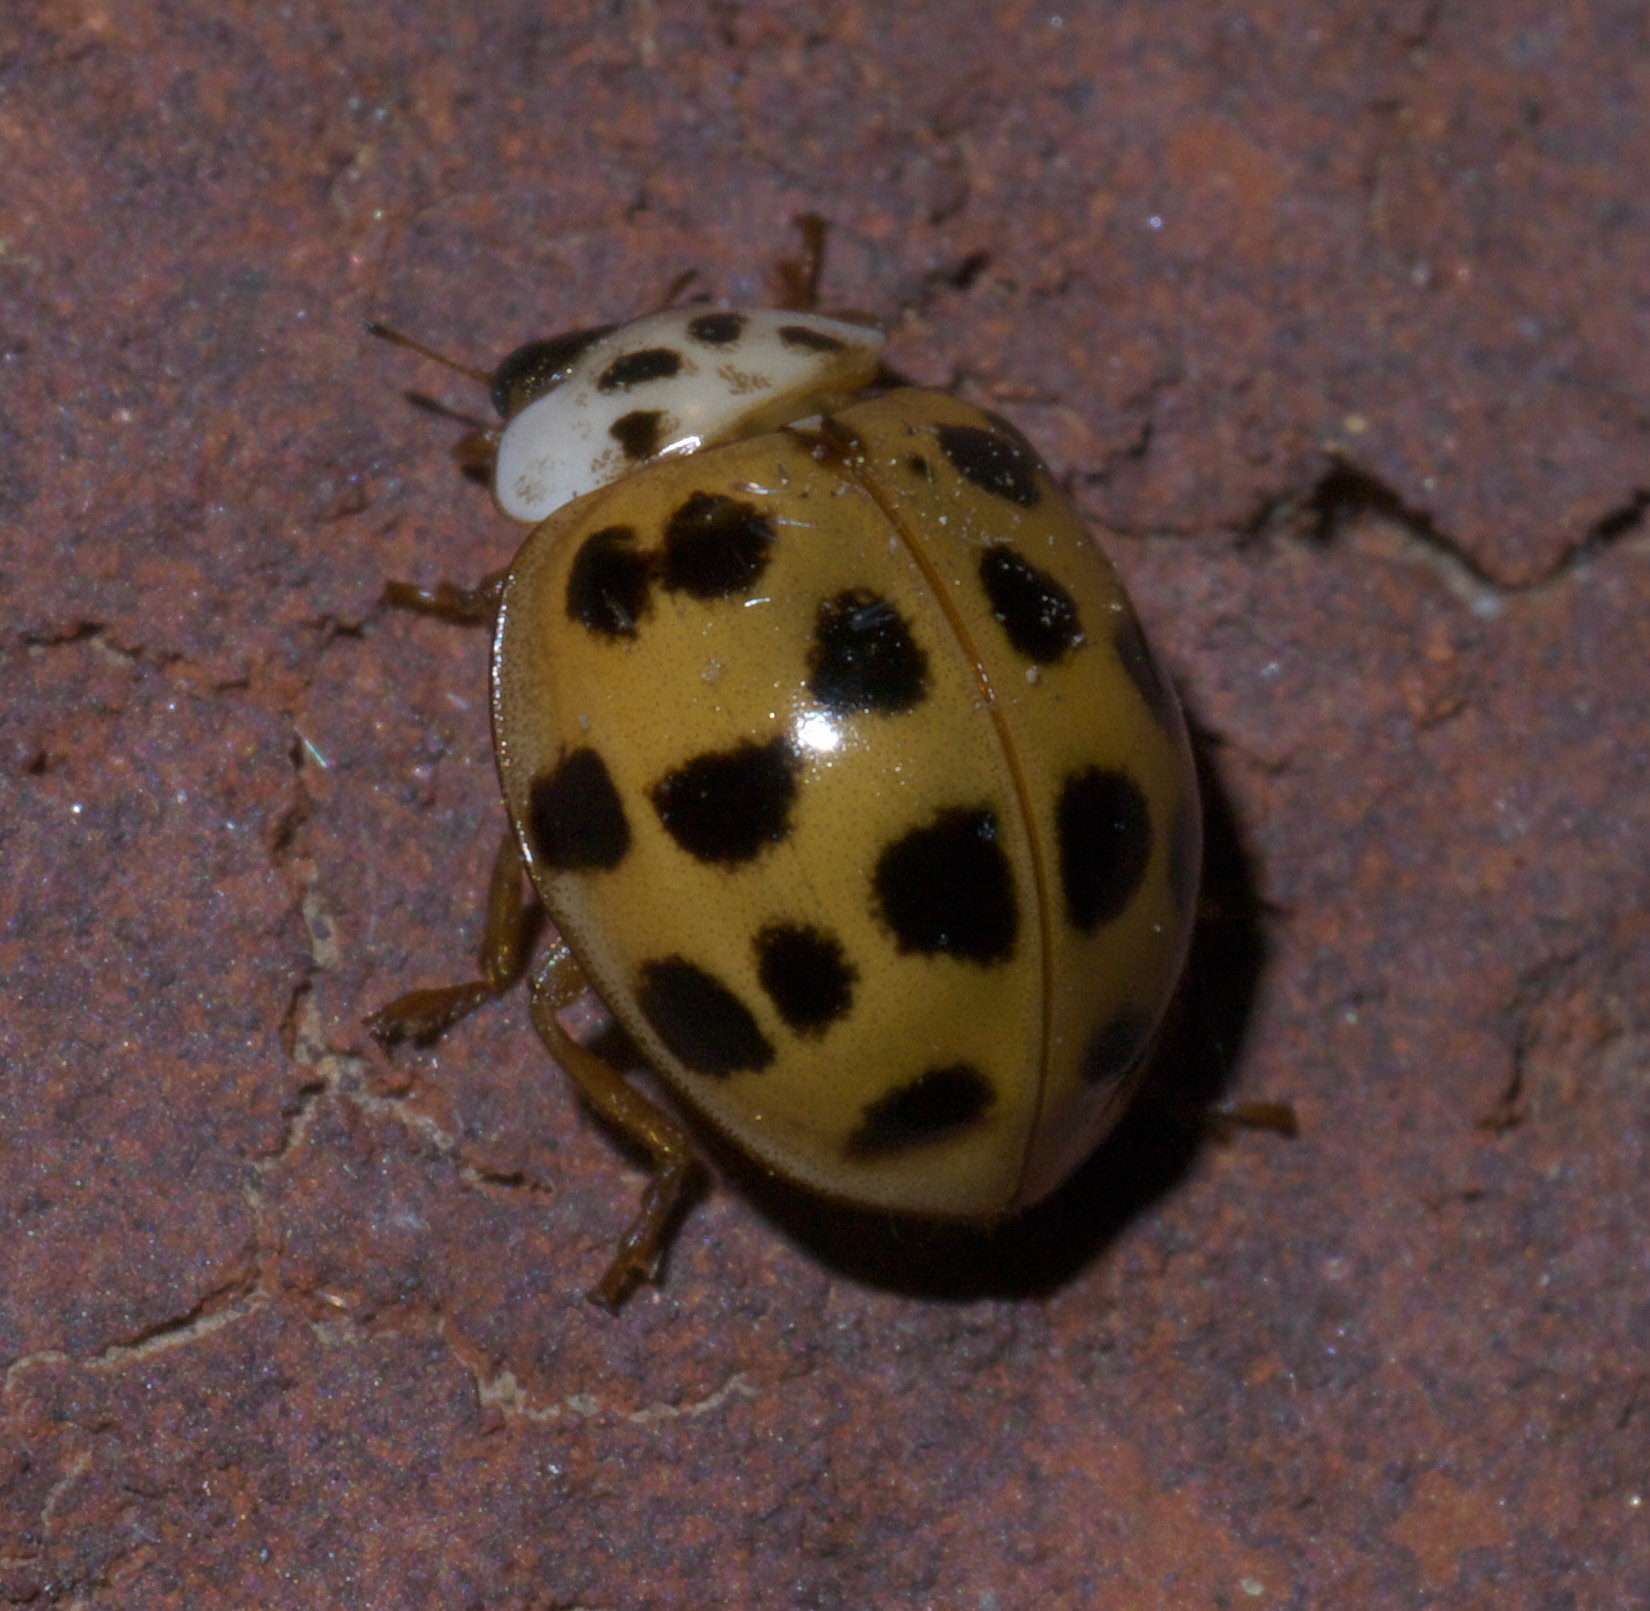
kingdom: Animalia
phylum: Arthropoda
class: Insecta
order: Coleoptera
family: Coccinellidae
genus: Harmonia
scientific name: Harmonia axyridis
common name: Harlequin ladybird
